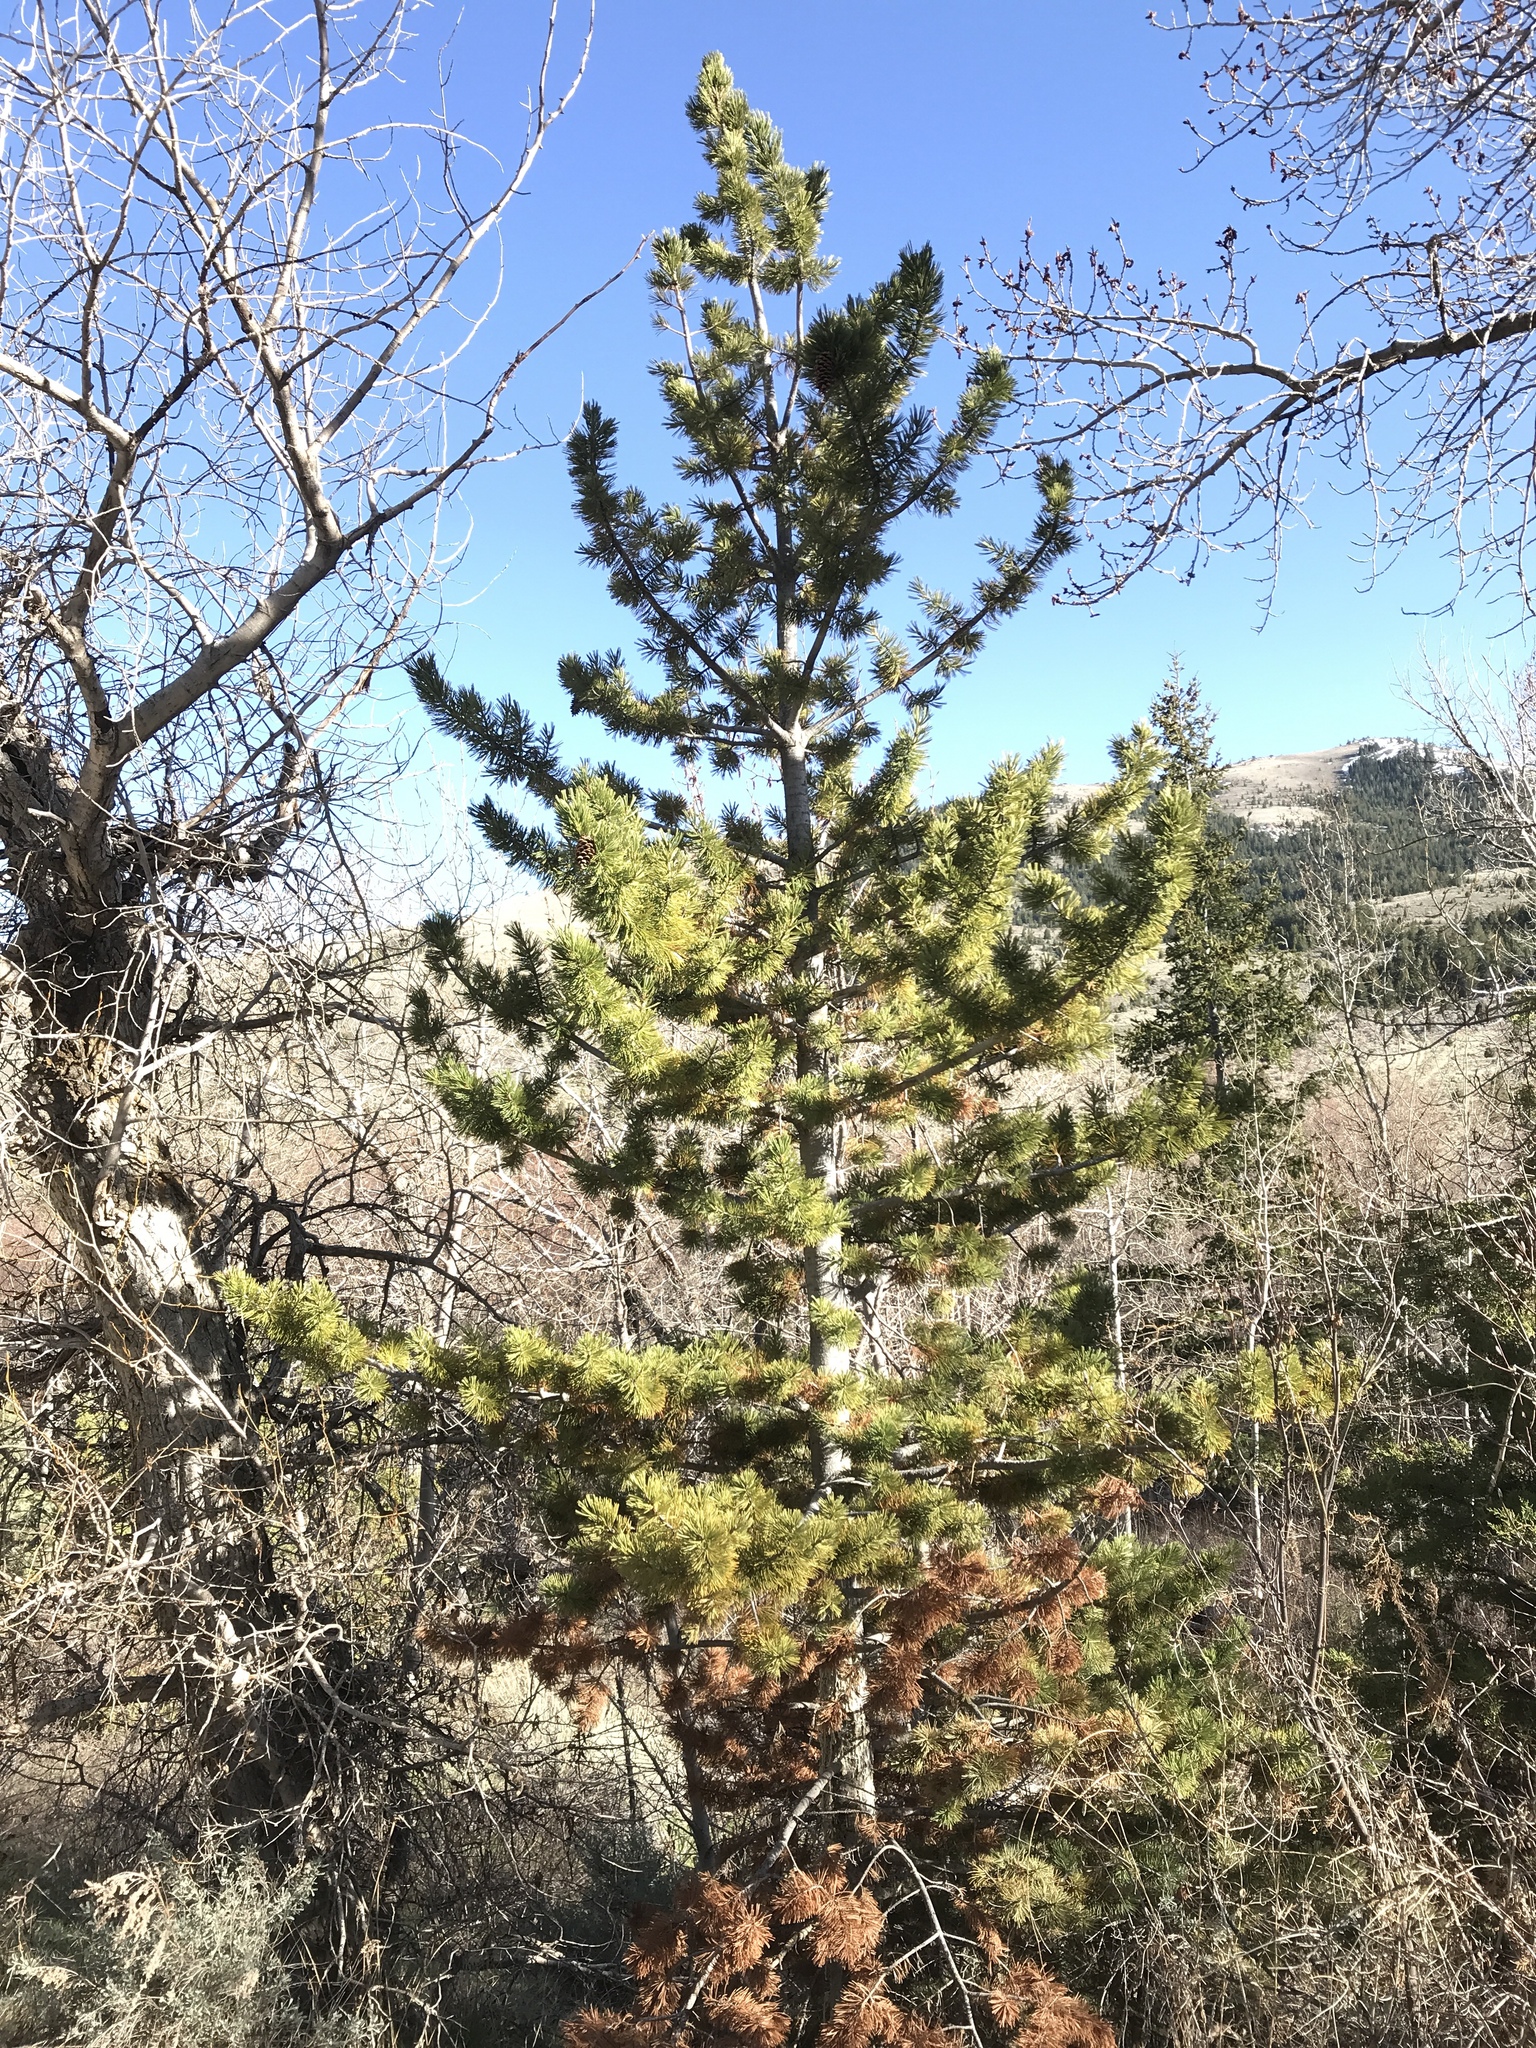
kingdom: Plantae
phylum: Tracheophyta
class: Pinopsida
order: Pinales
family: Pinaceae
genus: Pinus
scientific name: Pinus flexilis
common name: Limber pine
